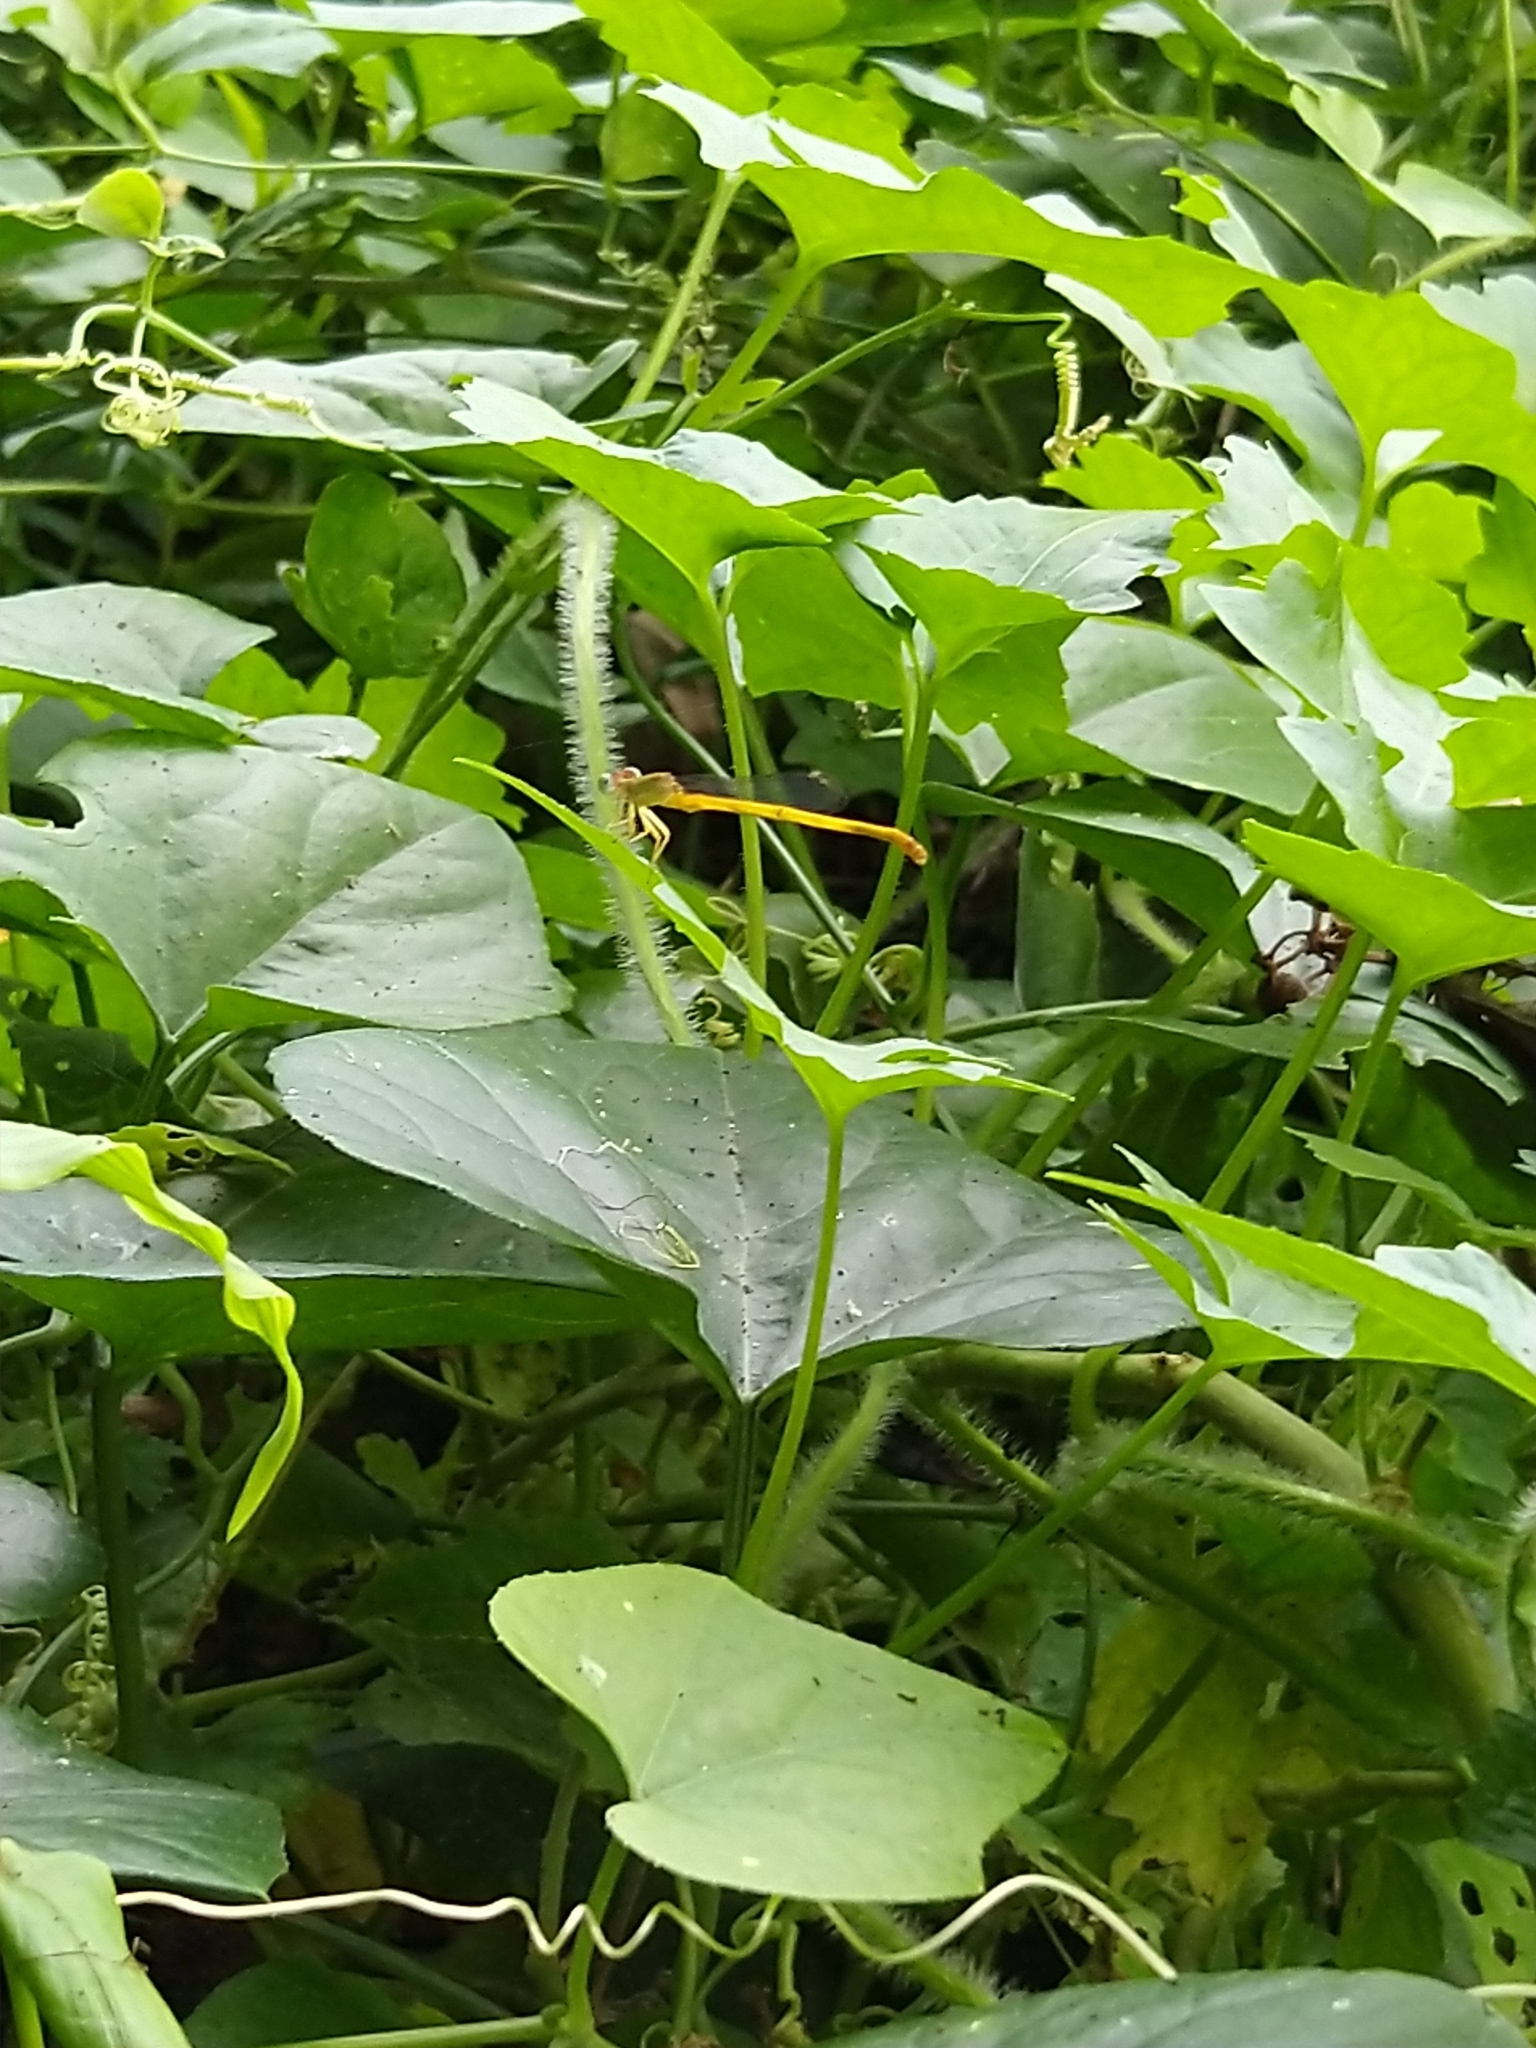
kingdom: Animalia
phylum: Arthropoda
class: Insecta
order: Odonata
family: Coenagrionidae
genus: Ceriagrion
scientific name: Ceriagrion coromandelianum
